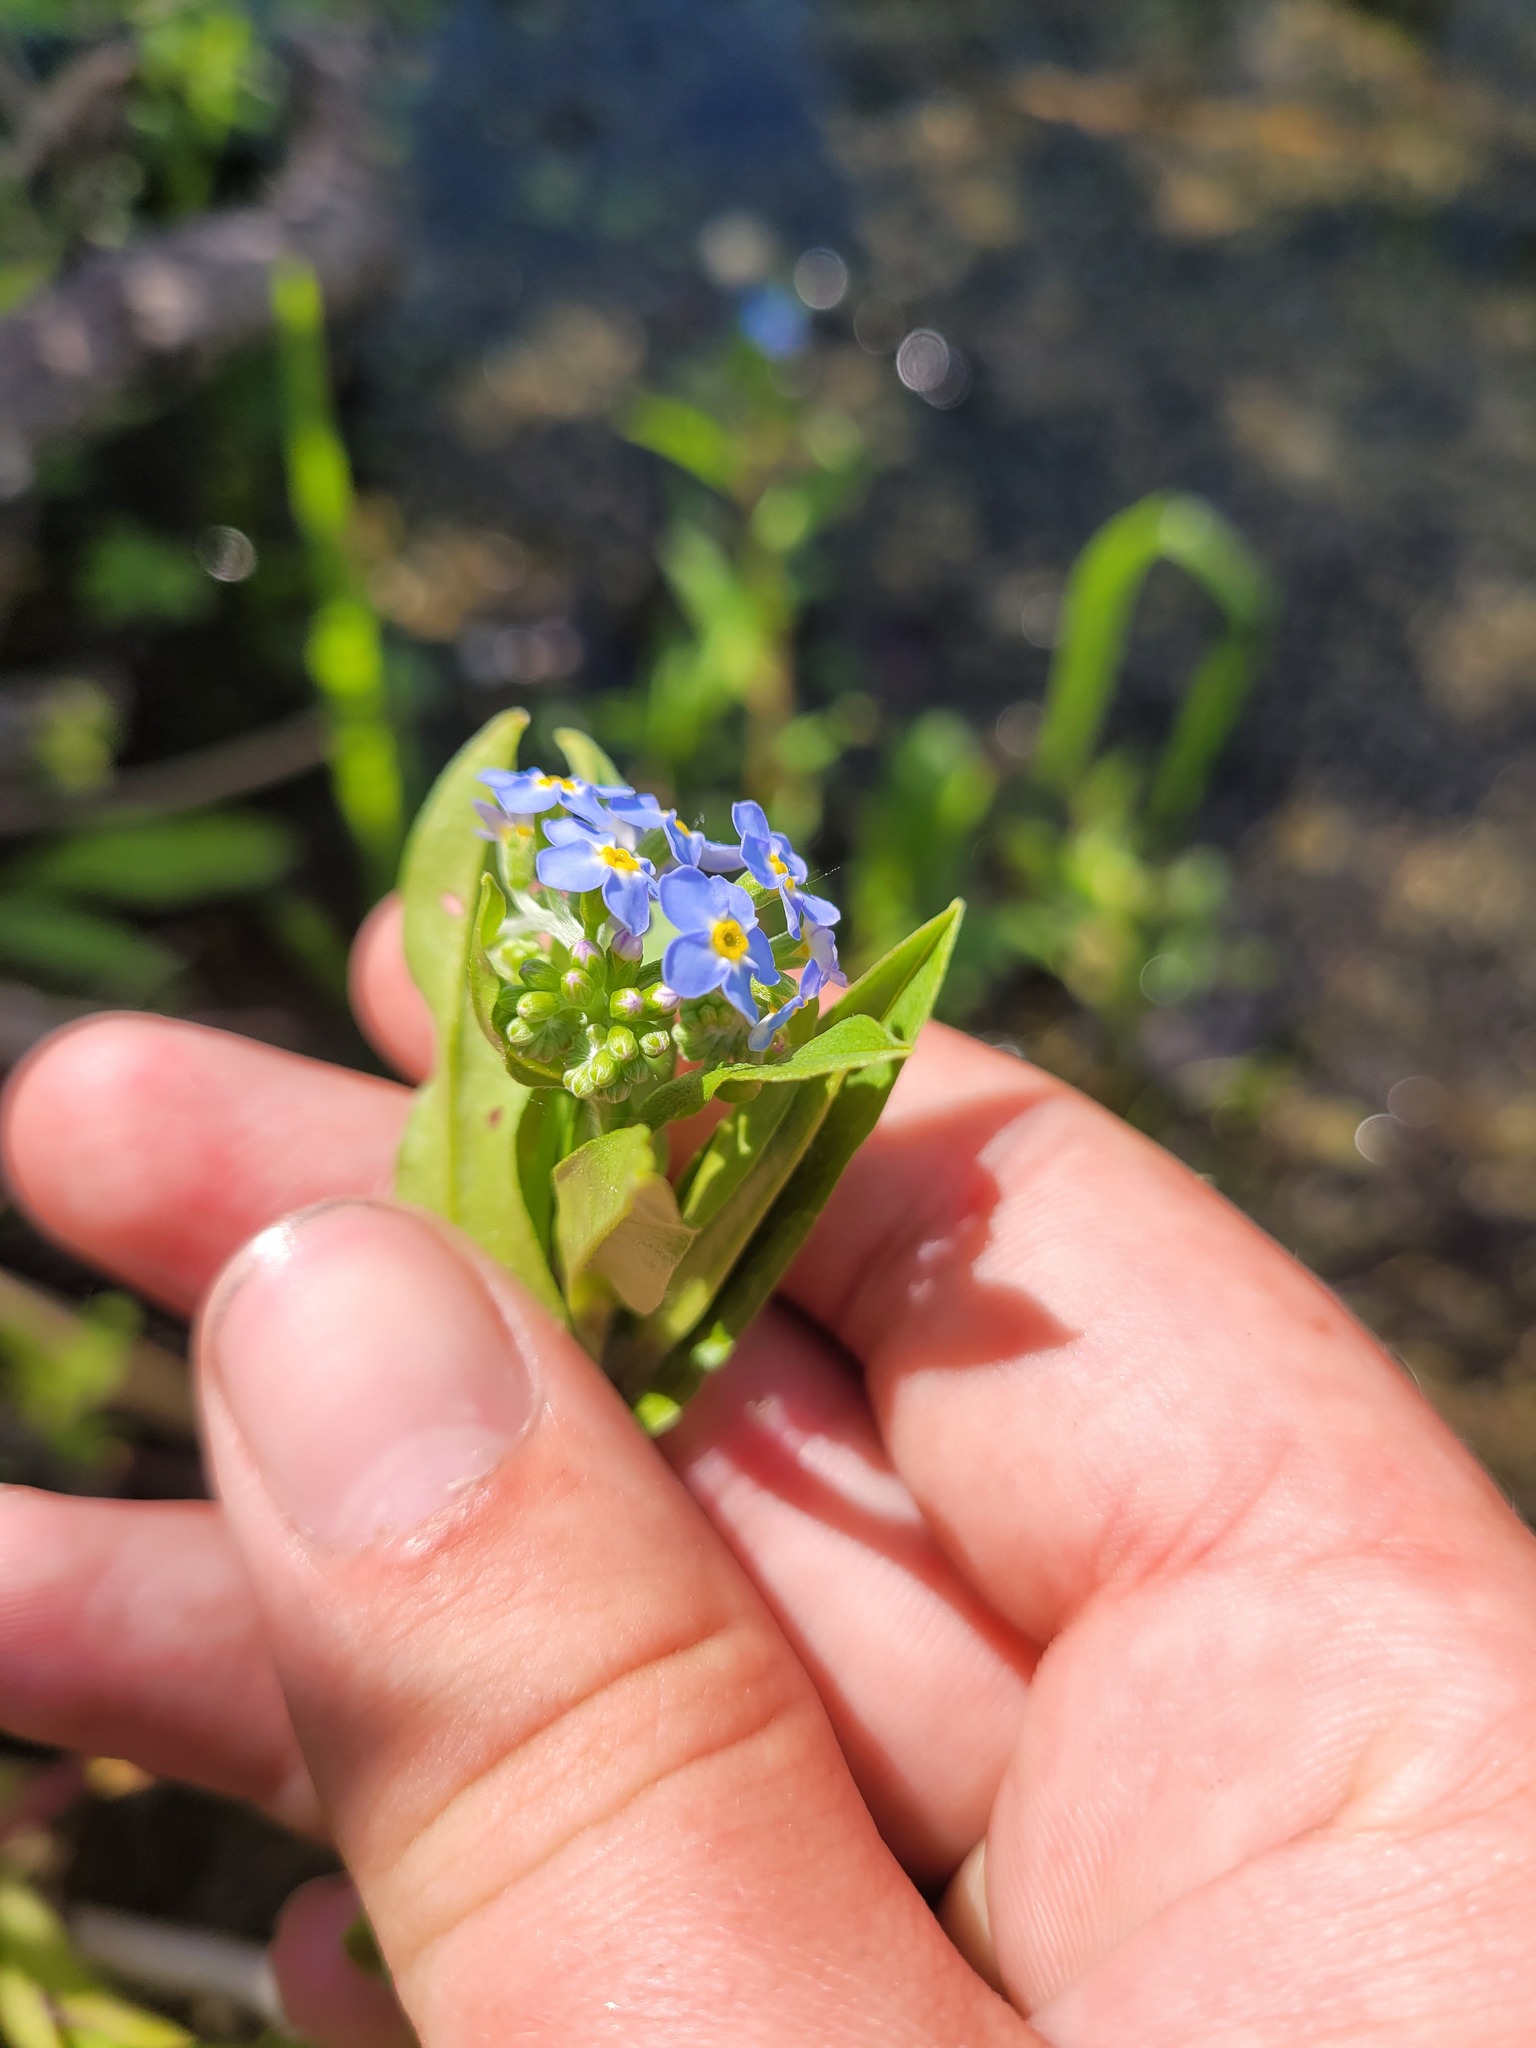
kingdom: Plantae
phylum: Tracheophyta
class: Magnoliopsida
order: Boraginales
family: Boraginaceae
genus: Myosotis
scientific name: Myosotis scorpioides
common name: Water forget-me-not
